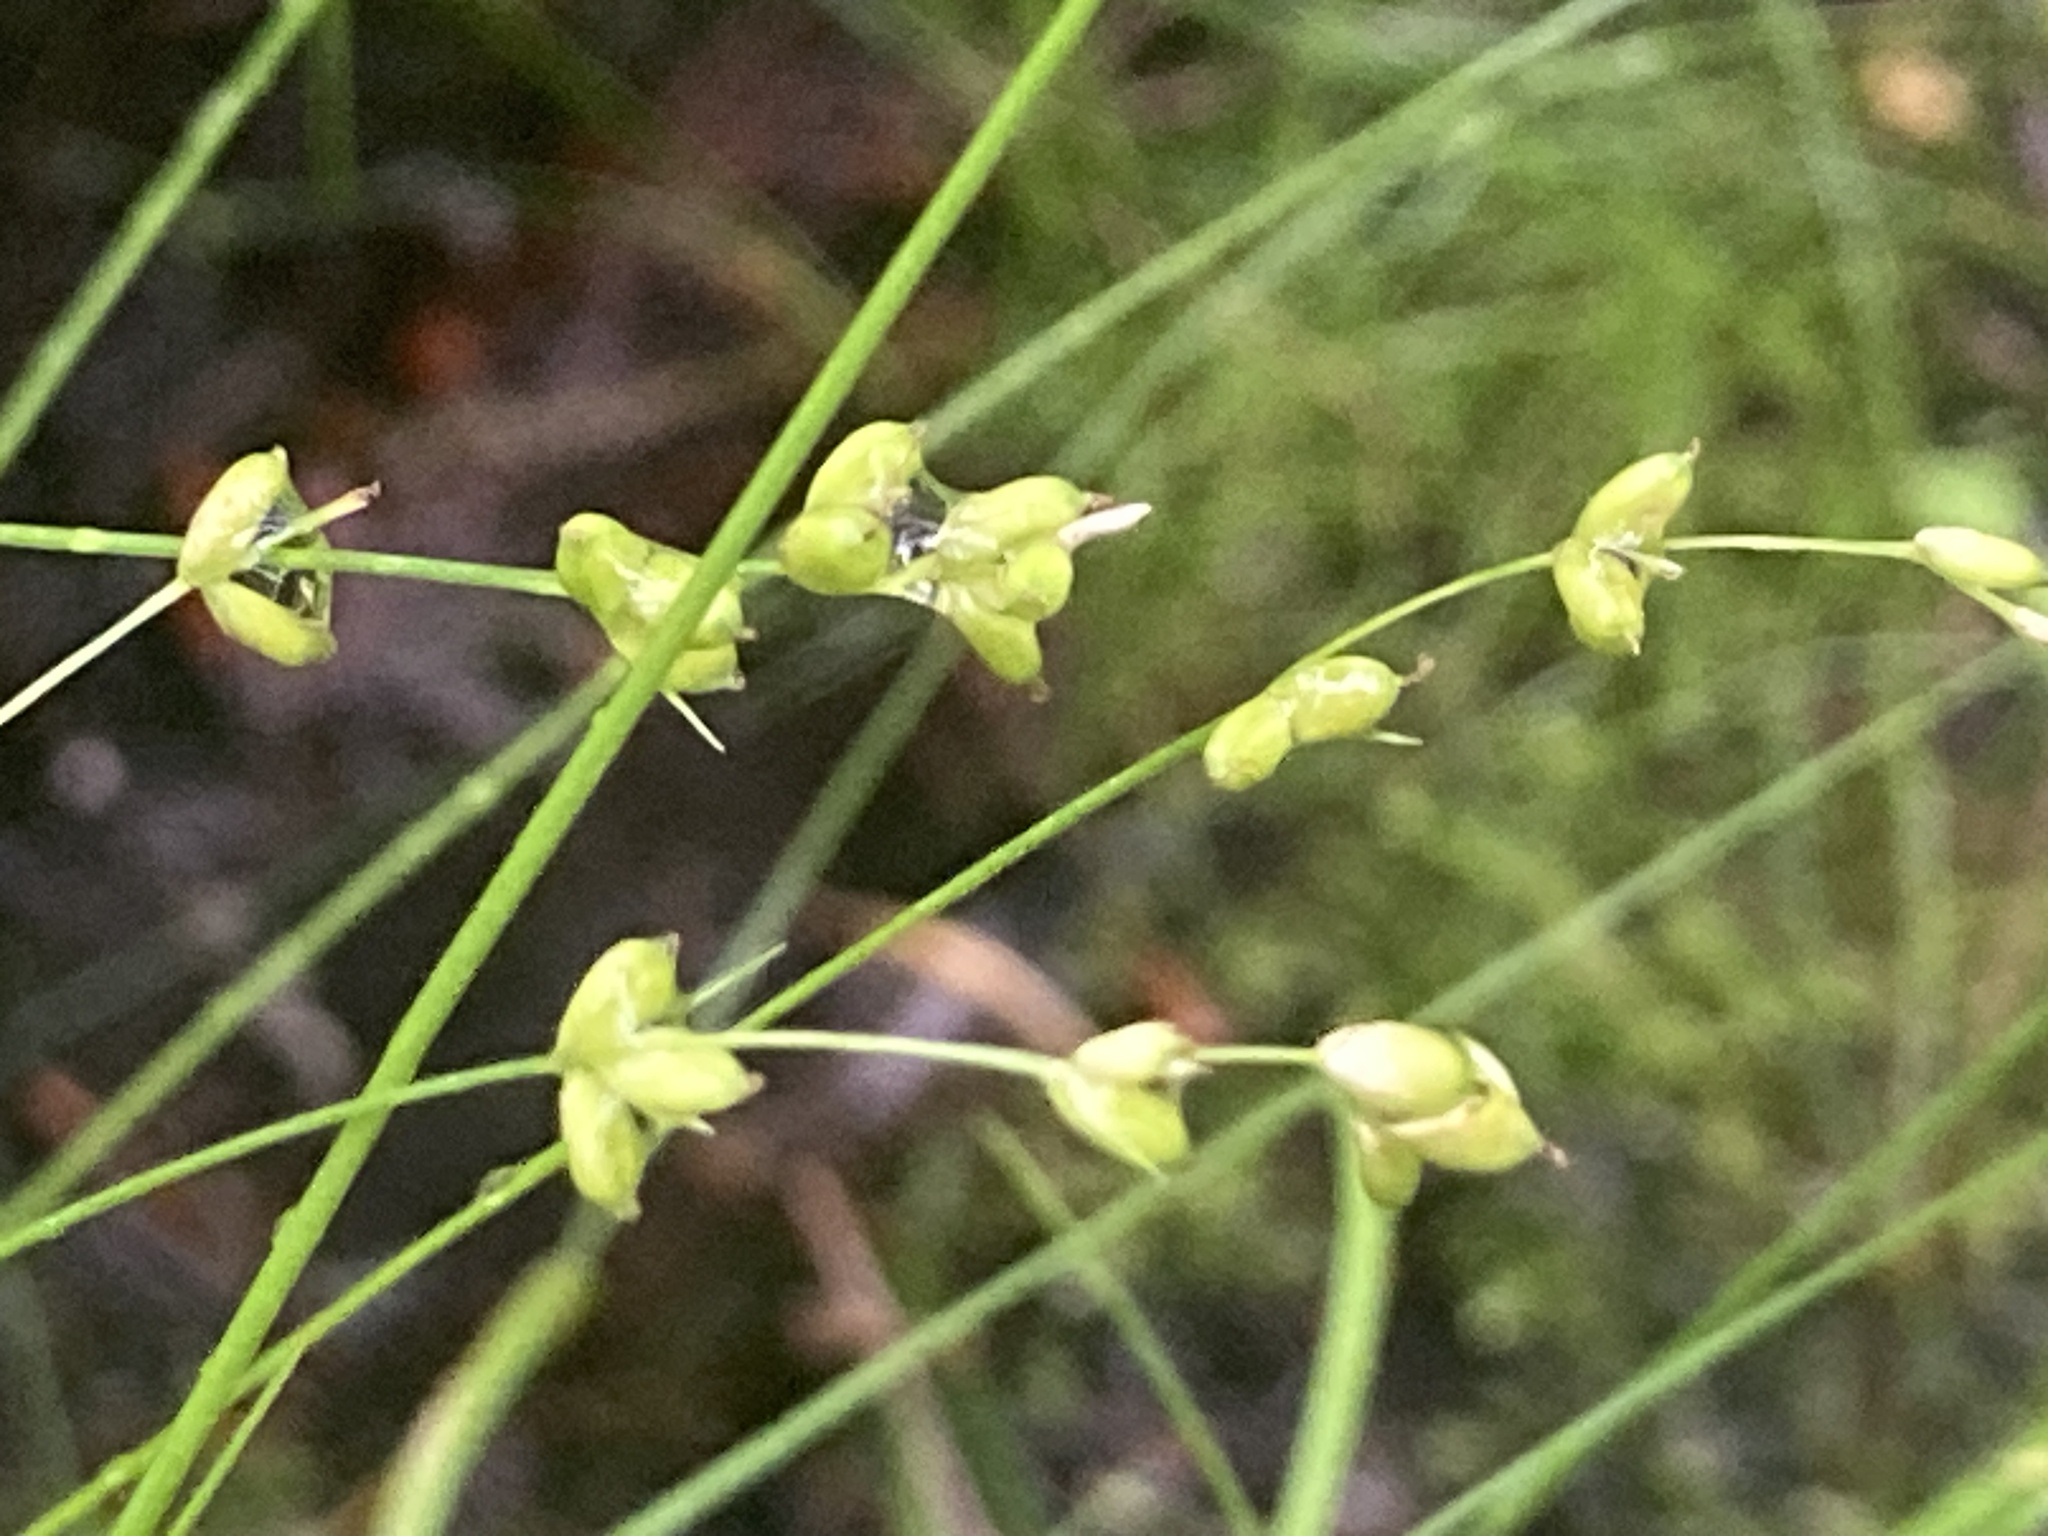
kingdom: Plantae
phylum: Tracheophyta
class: Liliopsida
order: Poales
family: Cyperaceae
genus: Carex
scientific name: Carex disperma
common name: Short-leaved sedge
